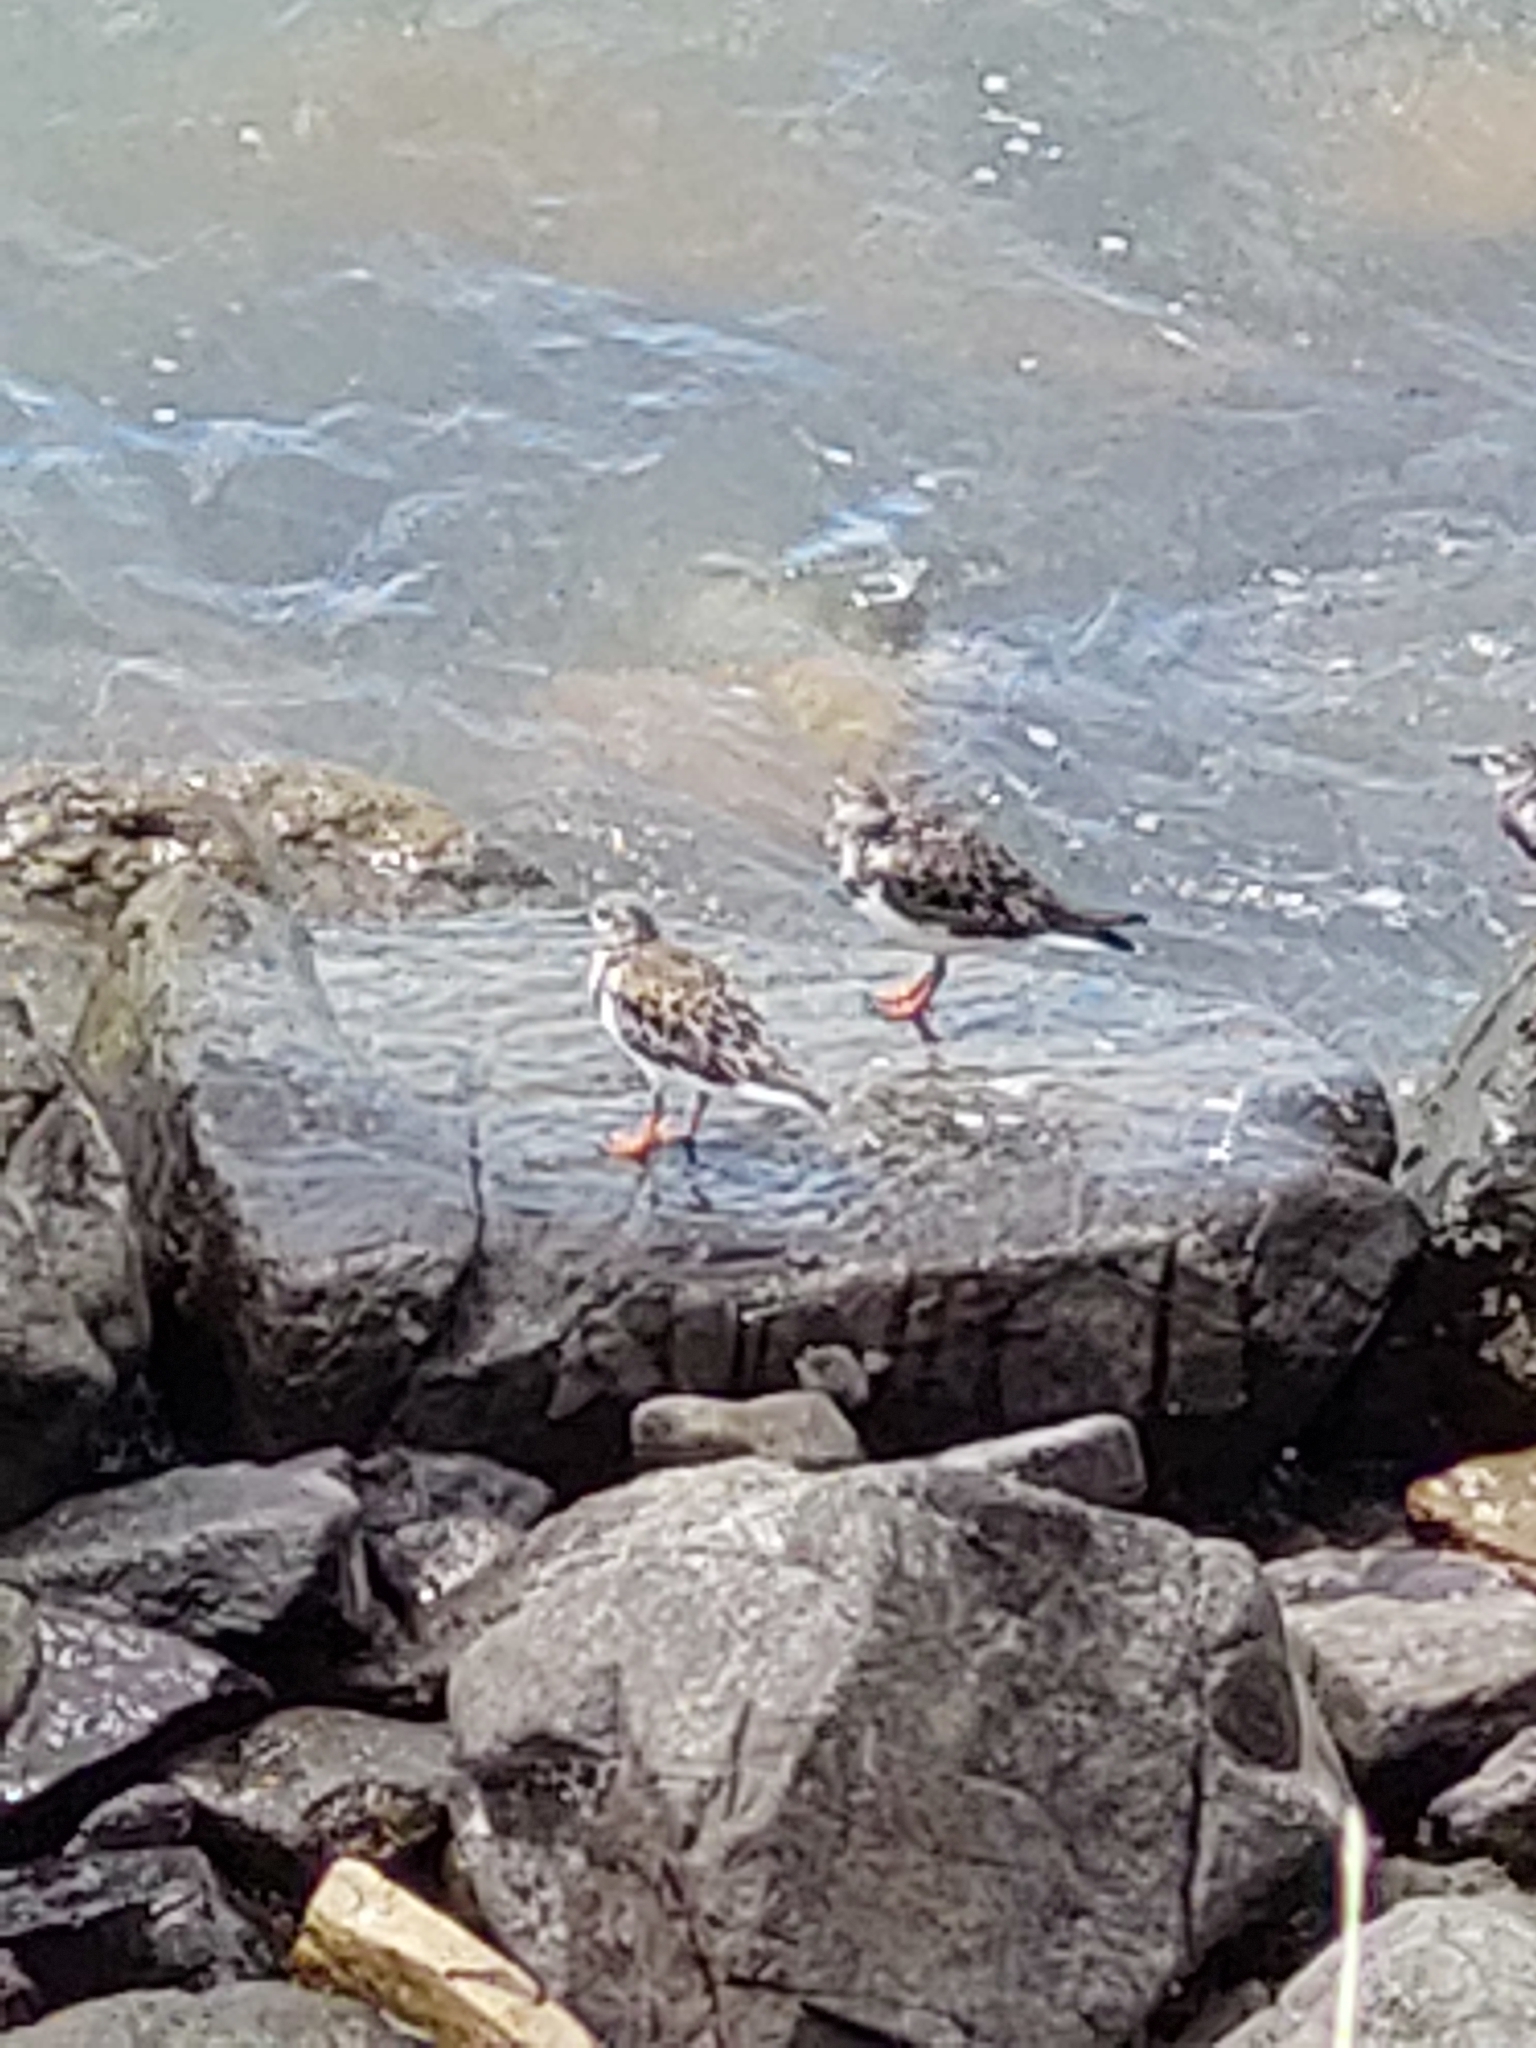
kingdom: Animalia
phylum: Chordata
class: Aves
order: Charadriiformes
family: Scolopacidae
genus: Arenaria
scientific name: Arenaria interpres
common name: Ruddy turnstone
